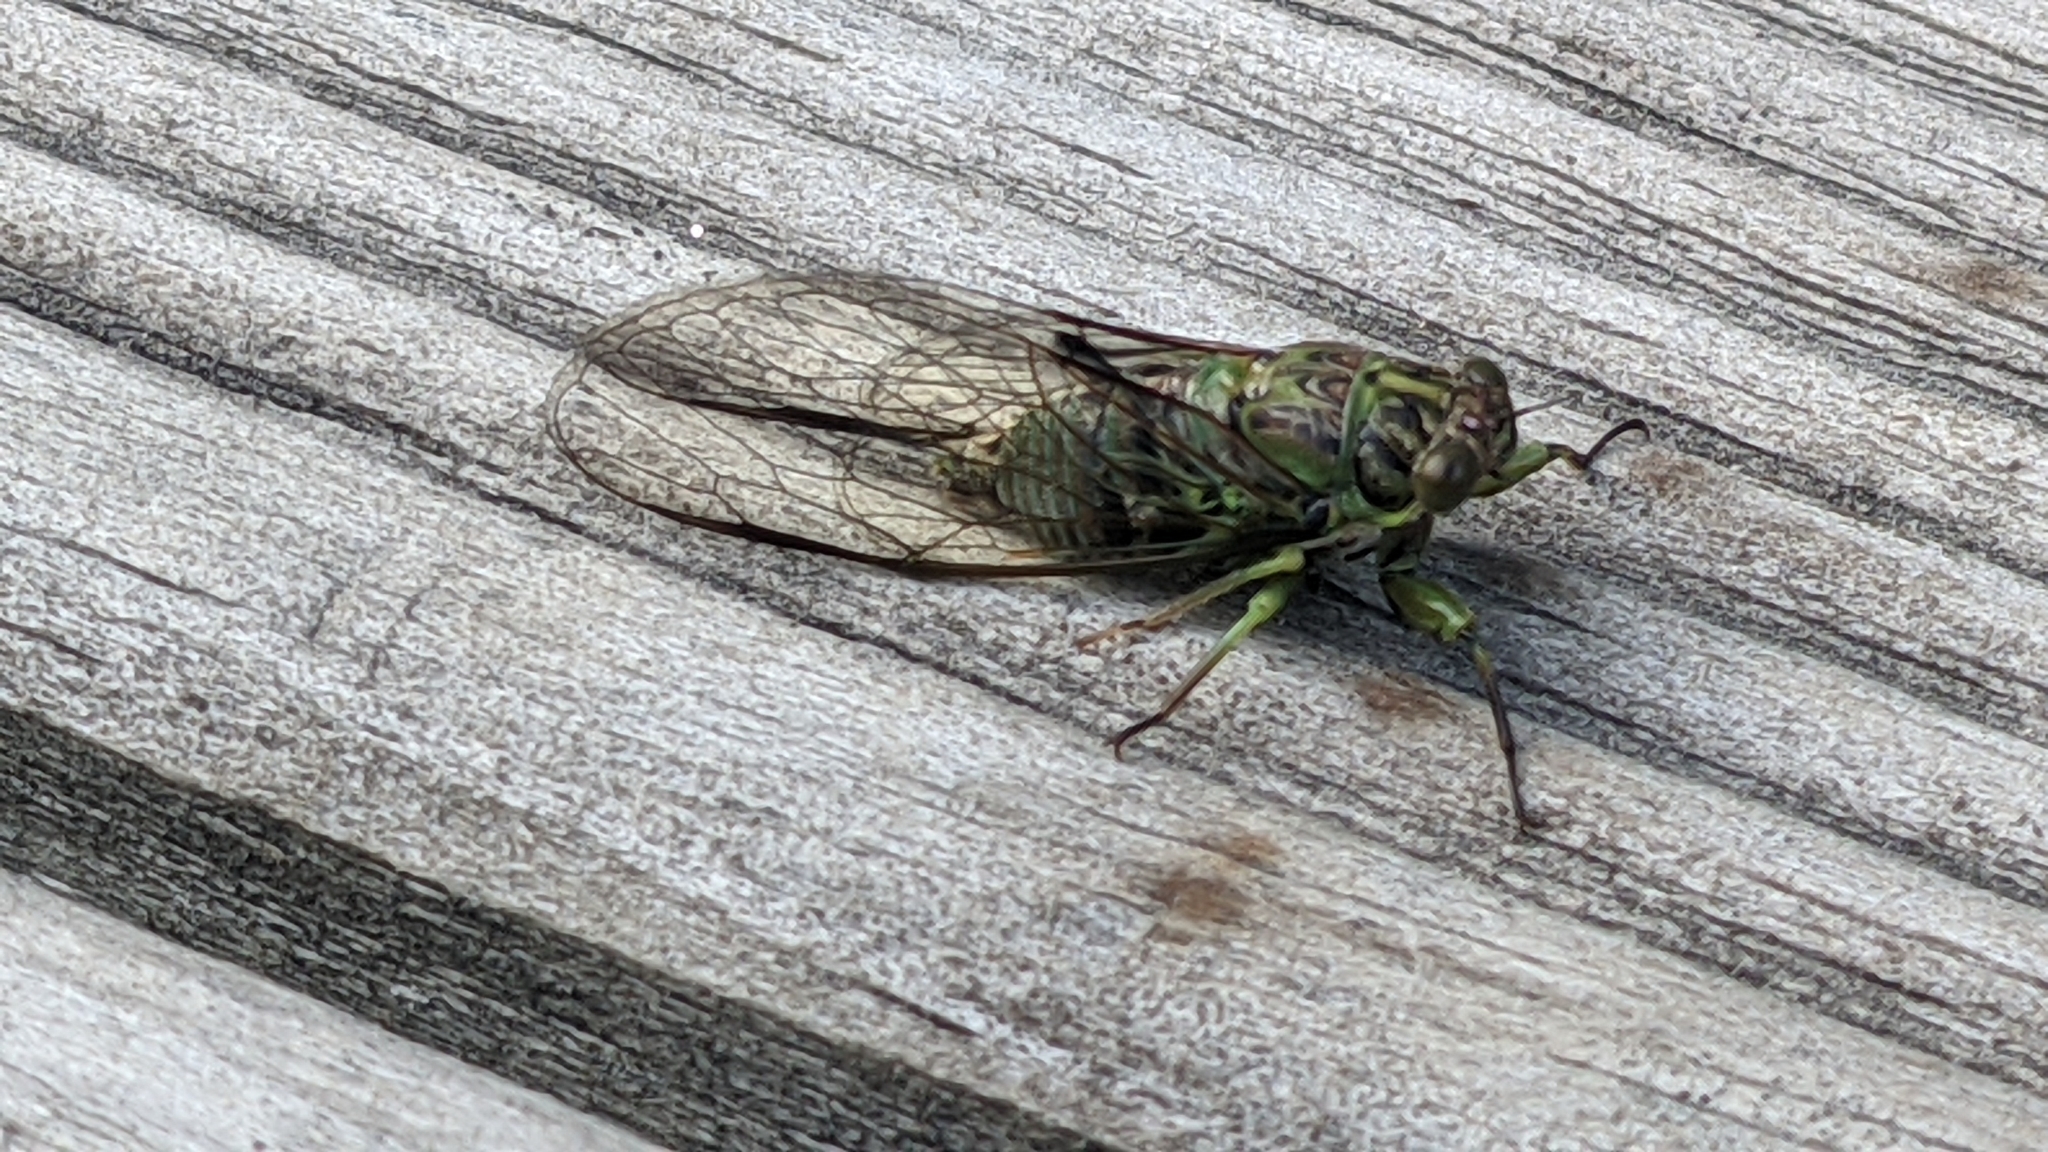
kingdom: Animalia
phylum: Arthropoda
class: Insecta
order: Hemiptera
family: Cicadidae
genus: Kikihia
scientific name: Kikihia scutellaris
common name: Lesser bronze cicada
